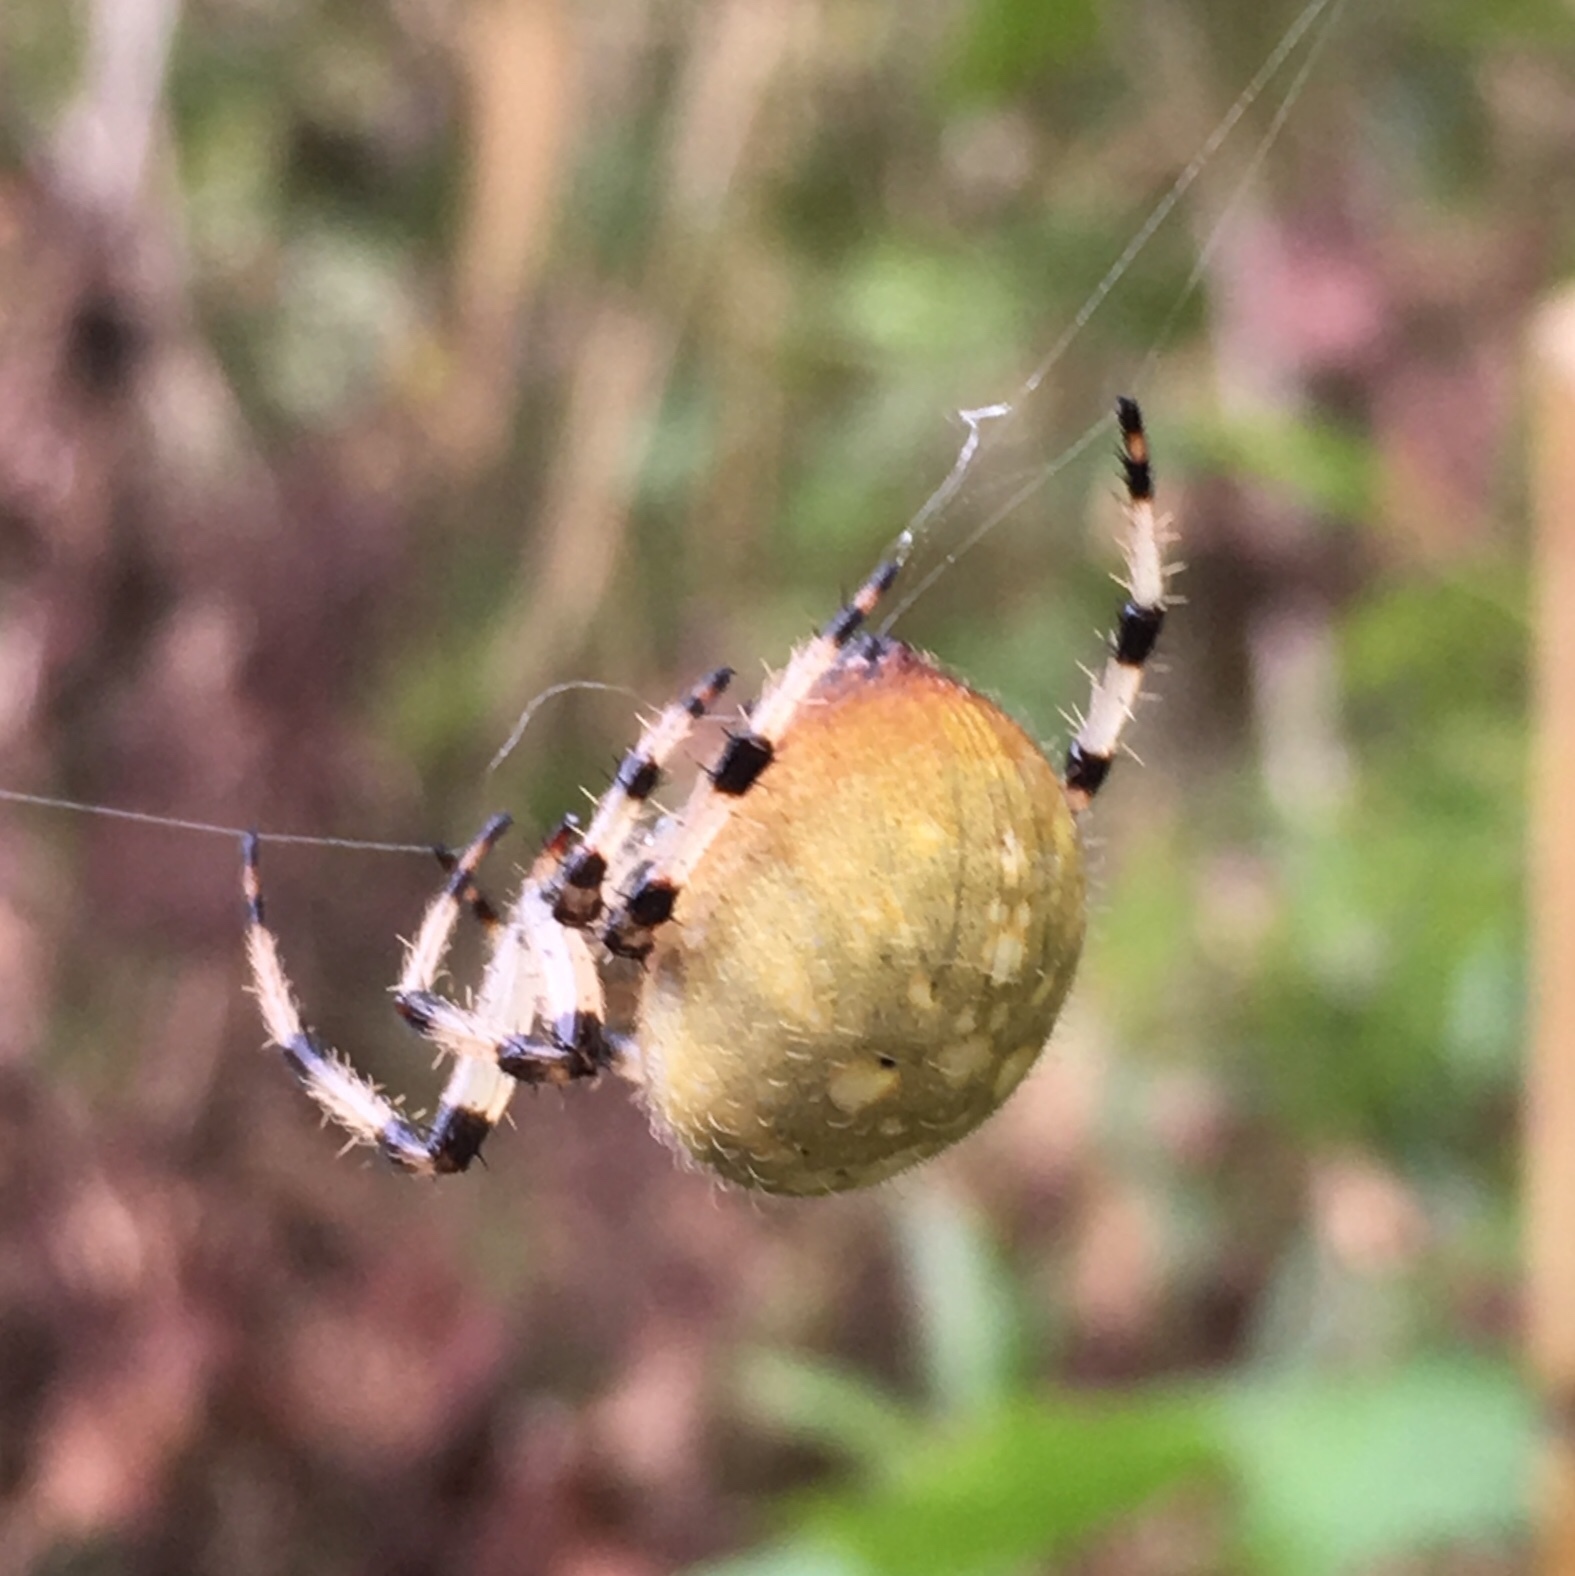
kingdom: Animalia
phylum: Arthropoda
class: Arachnida
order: Araneae
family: Araneidae
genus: Araneus
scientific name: Araneus trifolium
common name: Shamrock orbweaver
